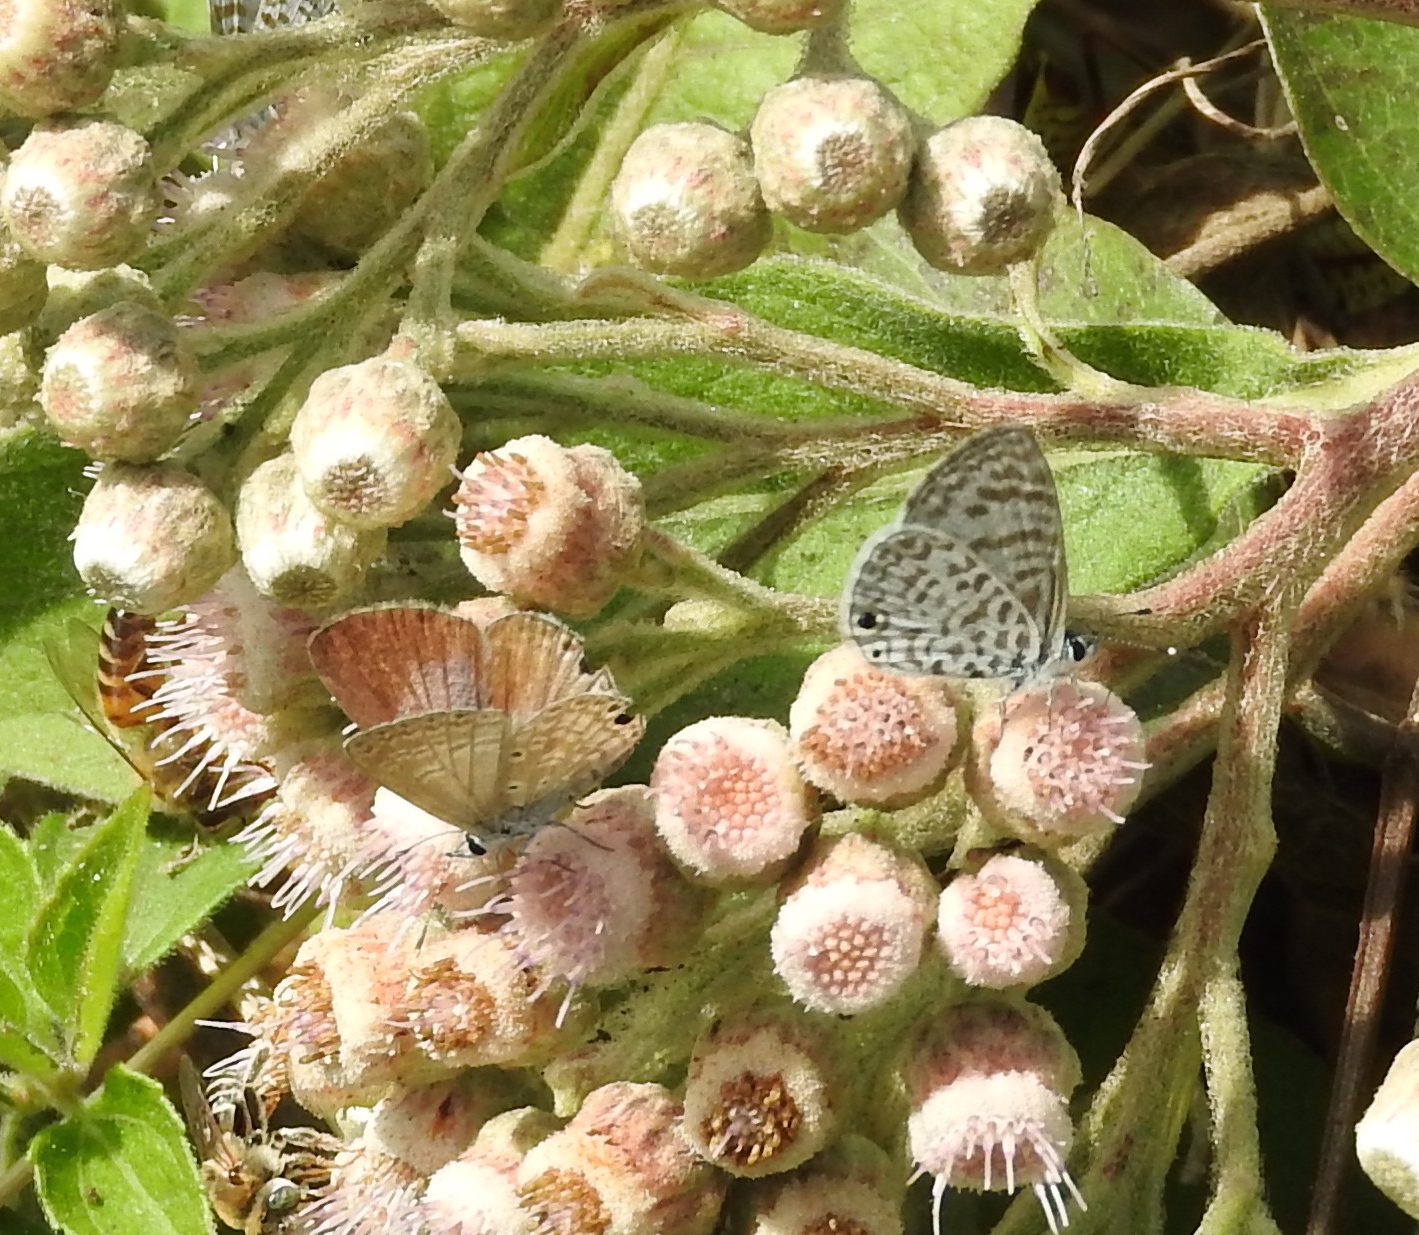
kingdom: Animalia
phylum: Arthropoda
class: Insecta
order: Lepidoptera
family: Lycaenidae
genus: Leptotes
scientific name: Leptotes theonus
